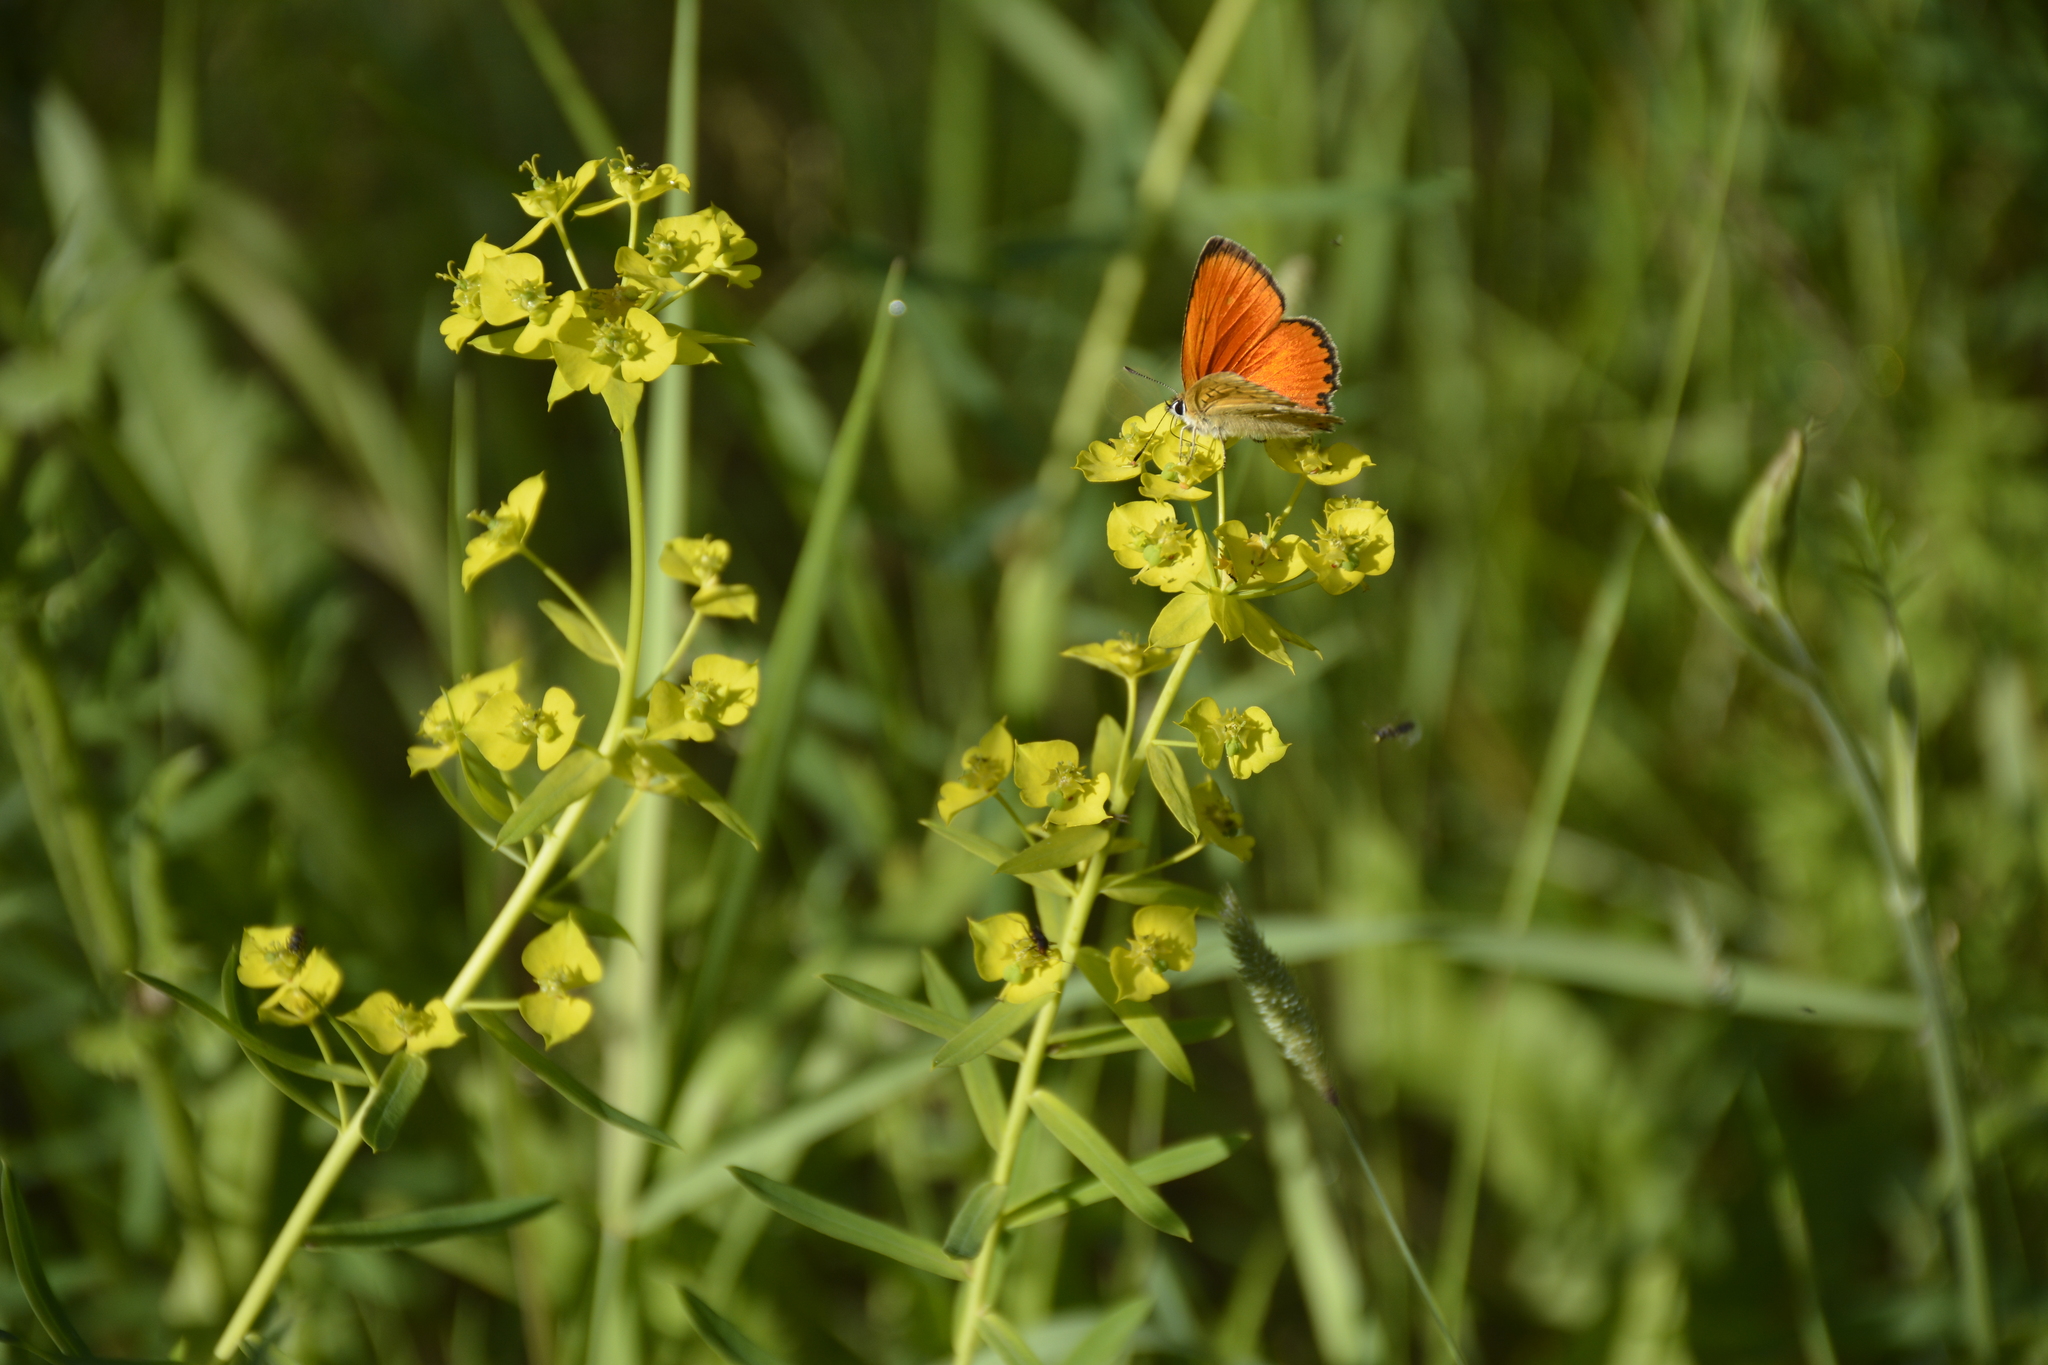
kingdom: Plantae
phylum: Tracheophyta
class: Magnoliopsida
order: Malpighiales
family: Euphorbiaceae
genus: Euphorbia
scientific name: Euphorbia virgata
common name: Leafy spurge
